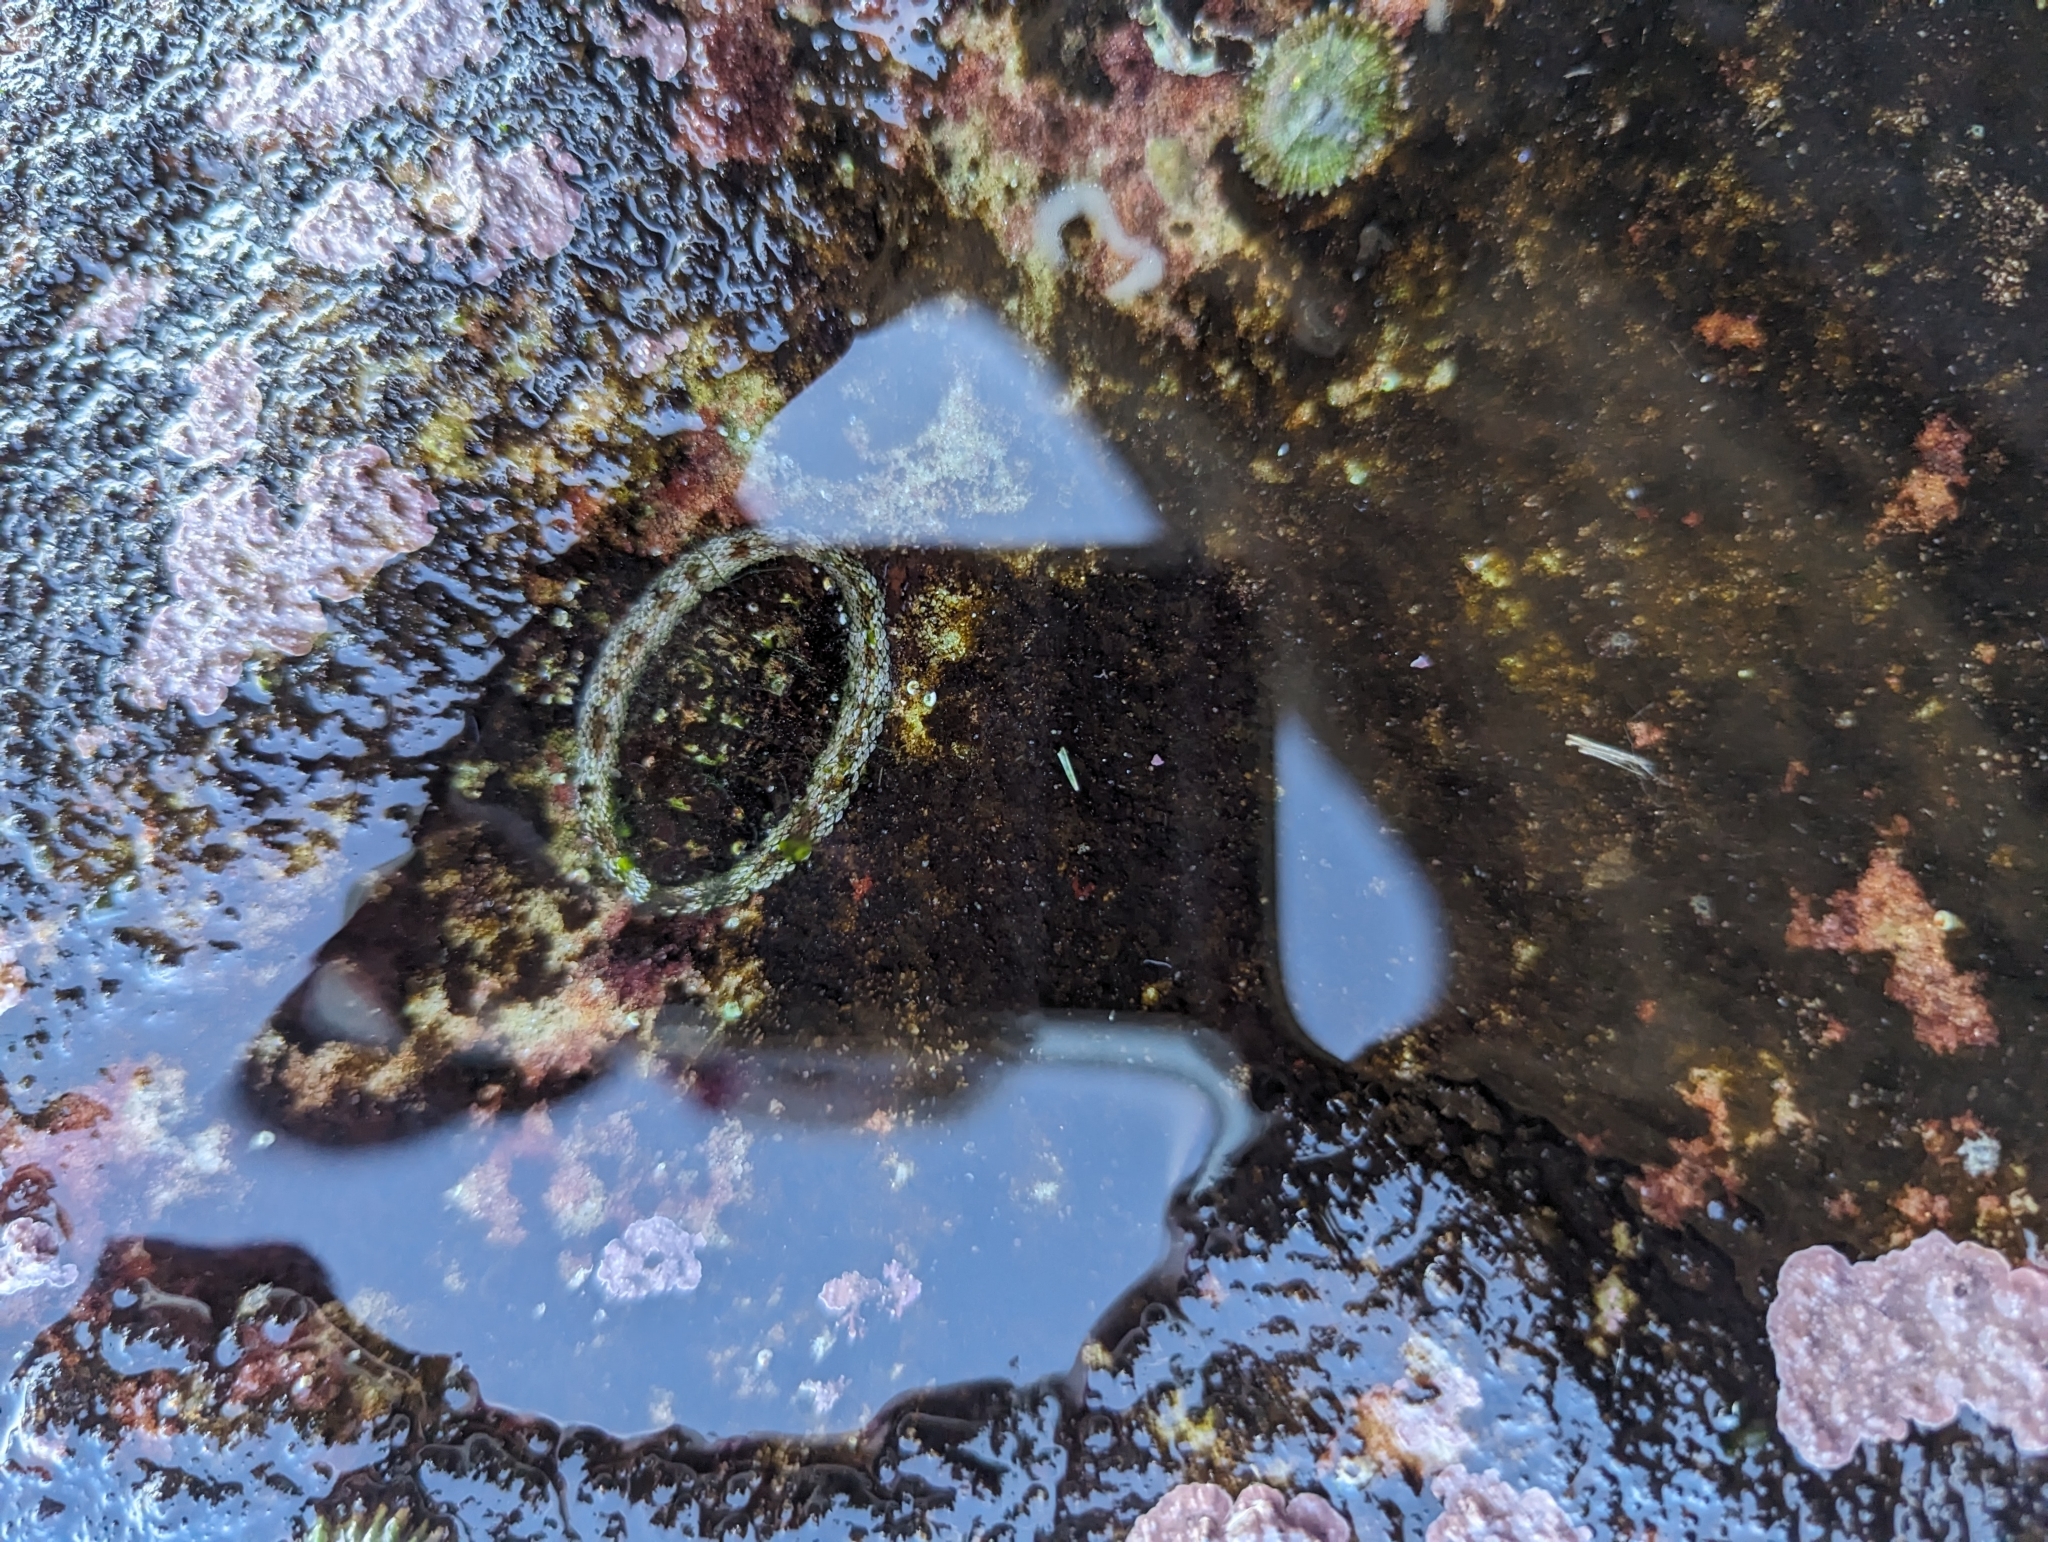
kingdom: Animalia
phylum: Mollusca
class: Polyplacophora
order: Chitonida
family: Chitonidae
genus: Sypharochiton
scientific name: Sypharochiton pelliserpentis
